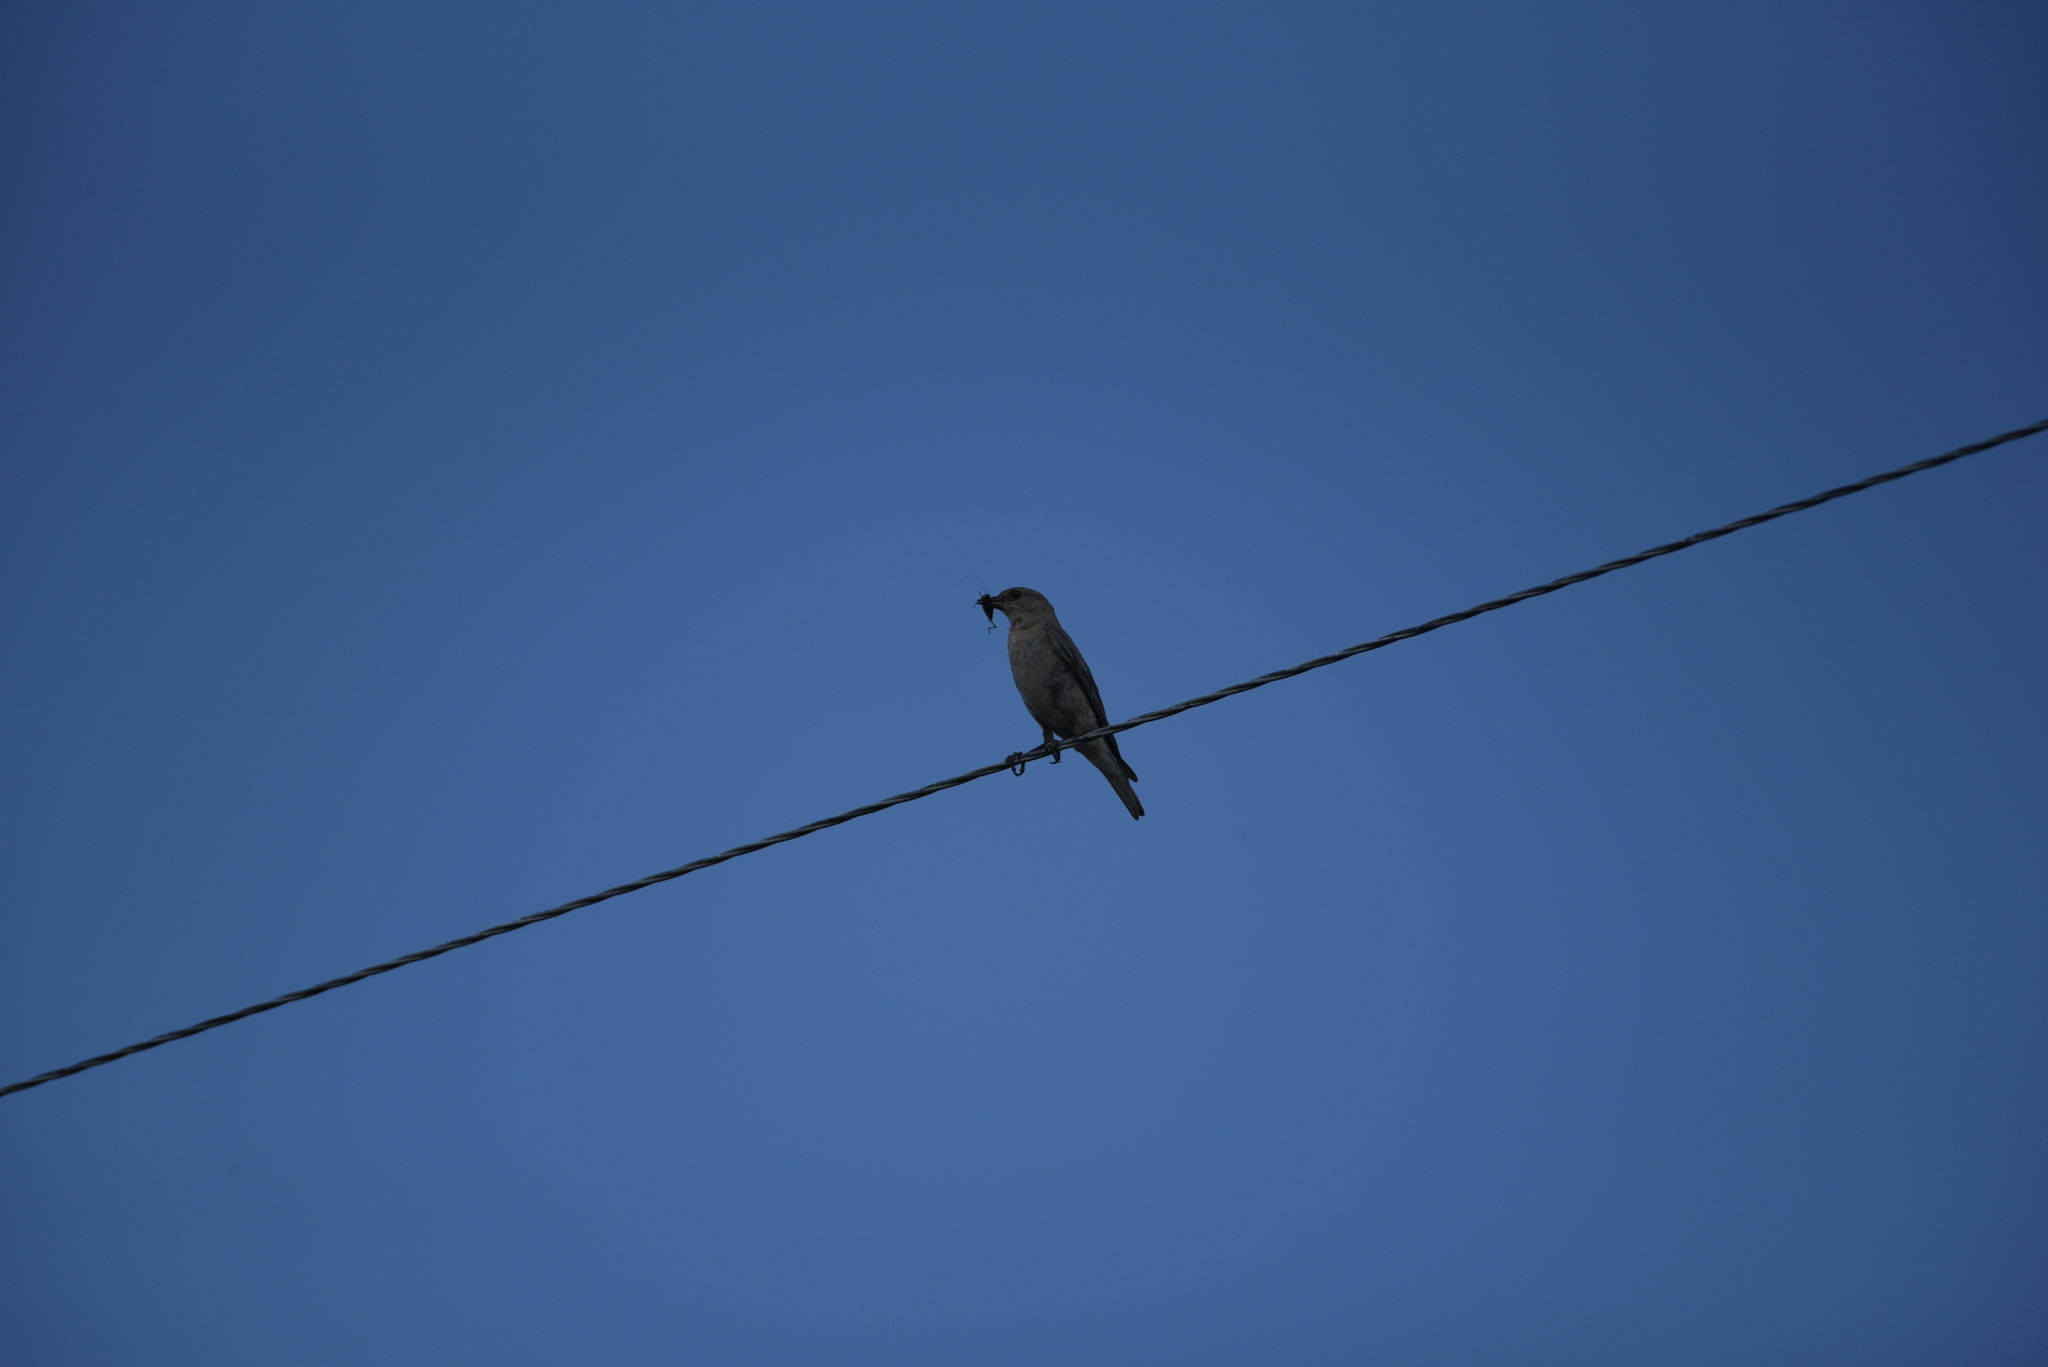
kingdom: Animalia
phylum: Chordata
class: Aves
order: Passeriformes
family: Turdidae
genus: Sialia
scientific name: Sialia currucoides
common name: Mountain bluebird
